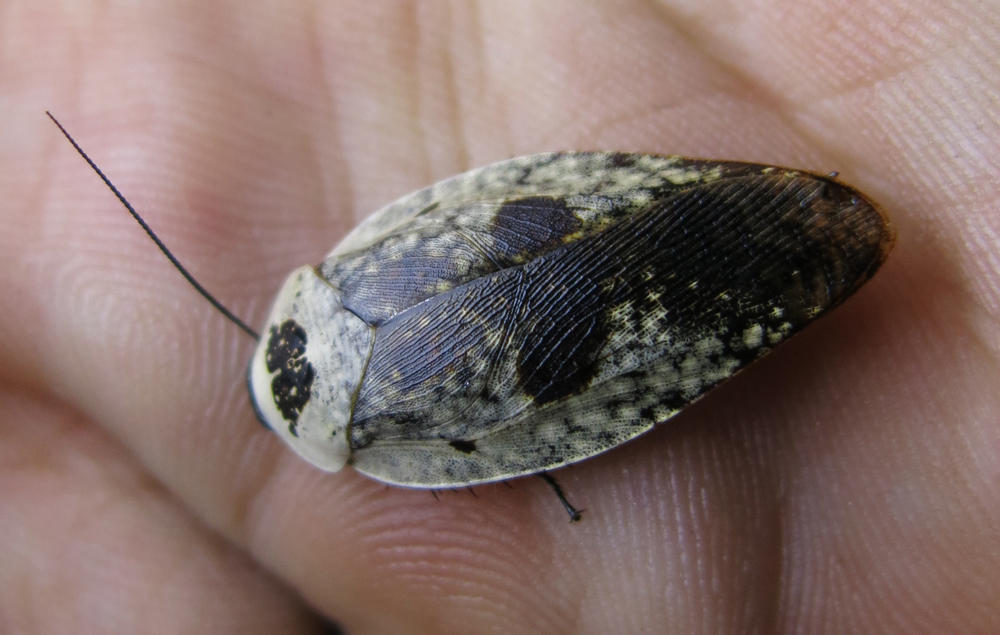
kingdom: Animalia
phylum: Arthropoda
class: Insecta
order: Blattodea
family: Blaberidae
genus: Gyna
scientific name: Gyna caffrorum
